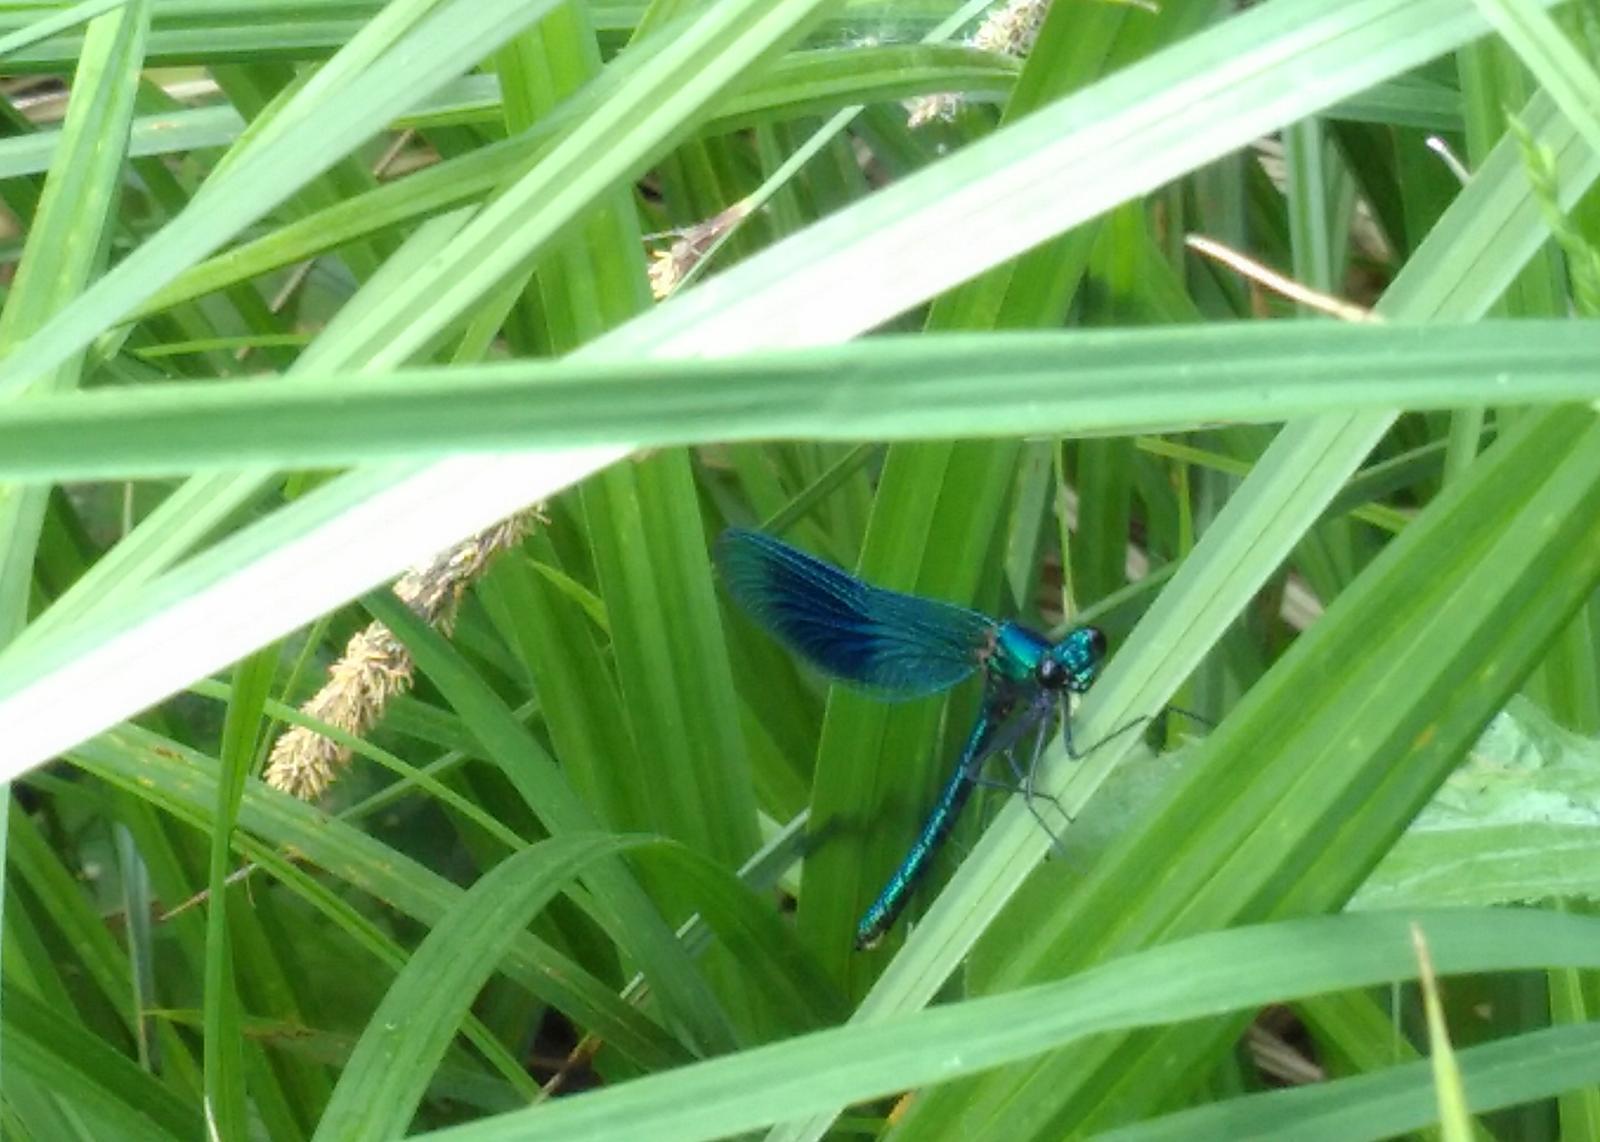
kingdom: Animalia
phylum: Arthropoda
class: Insecta
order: Odonata
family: Calopterygidae
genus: Calopteryx
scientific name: Calopteryx splendens
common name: Banded demoiselle
